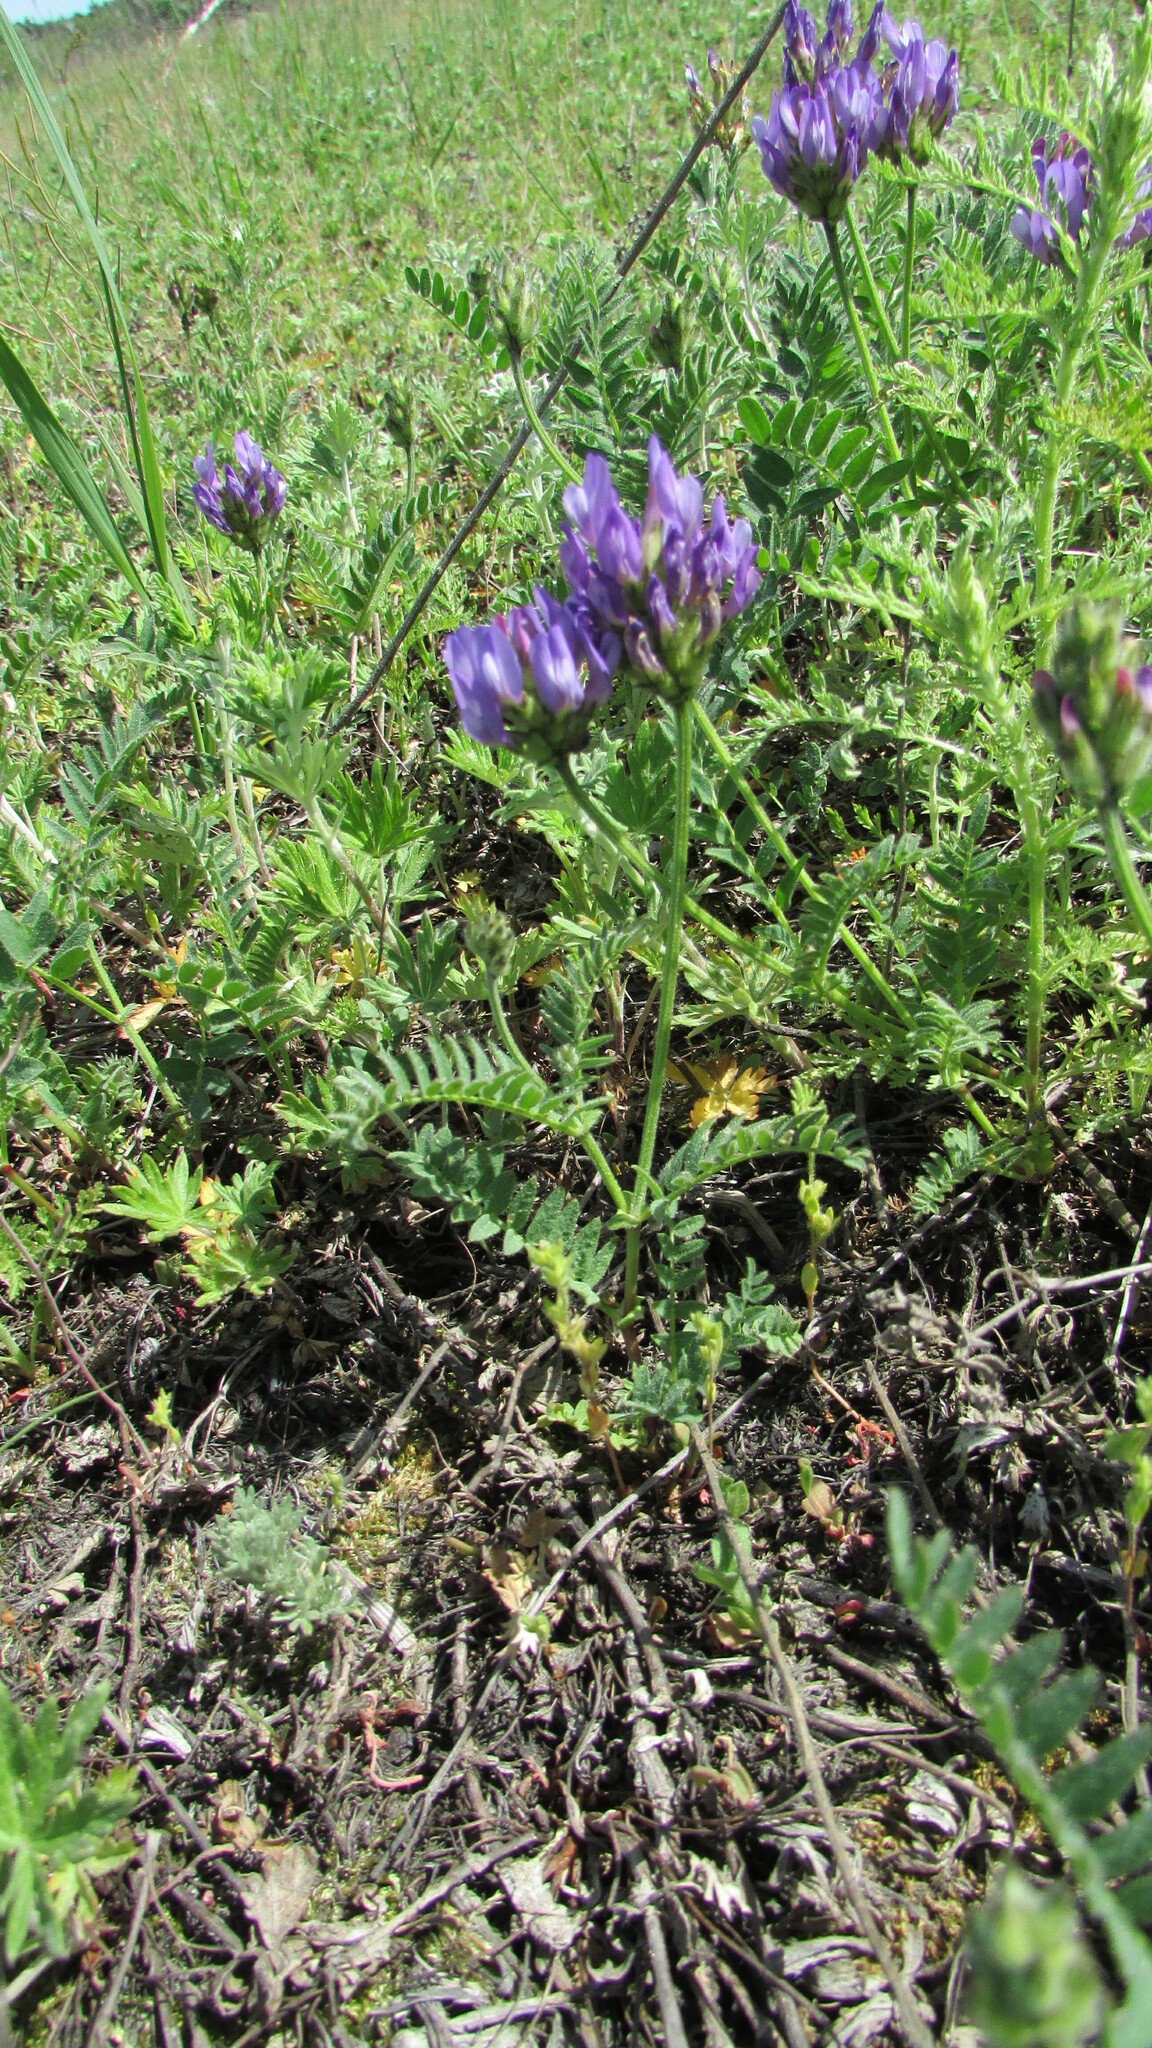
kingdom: Plantae
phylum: Tracheophyta
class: Magnoliopsida
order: Fabales
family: Fabaceae
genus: Astragalus
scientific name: Astragalus danicus
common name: Purple milk-vetch
